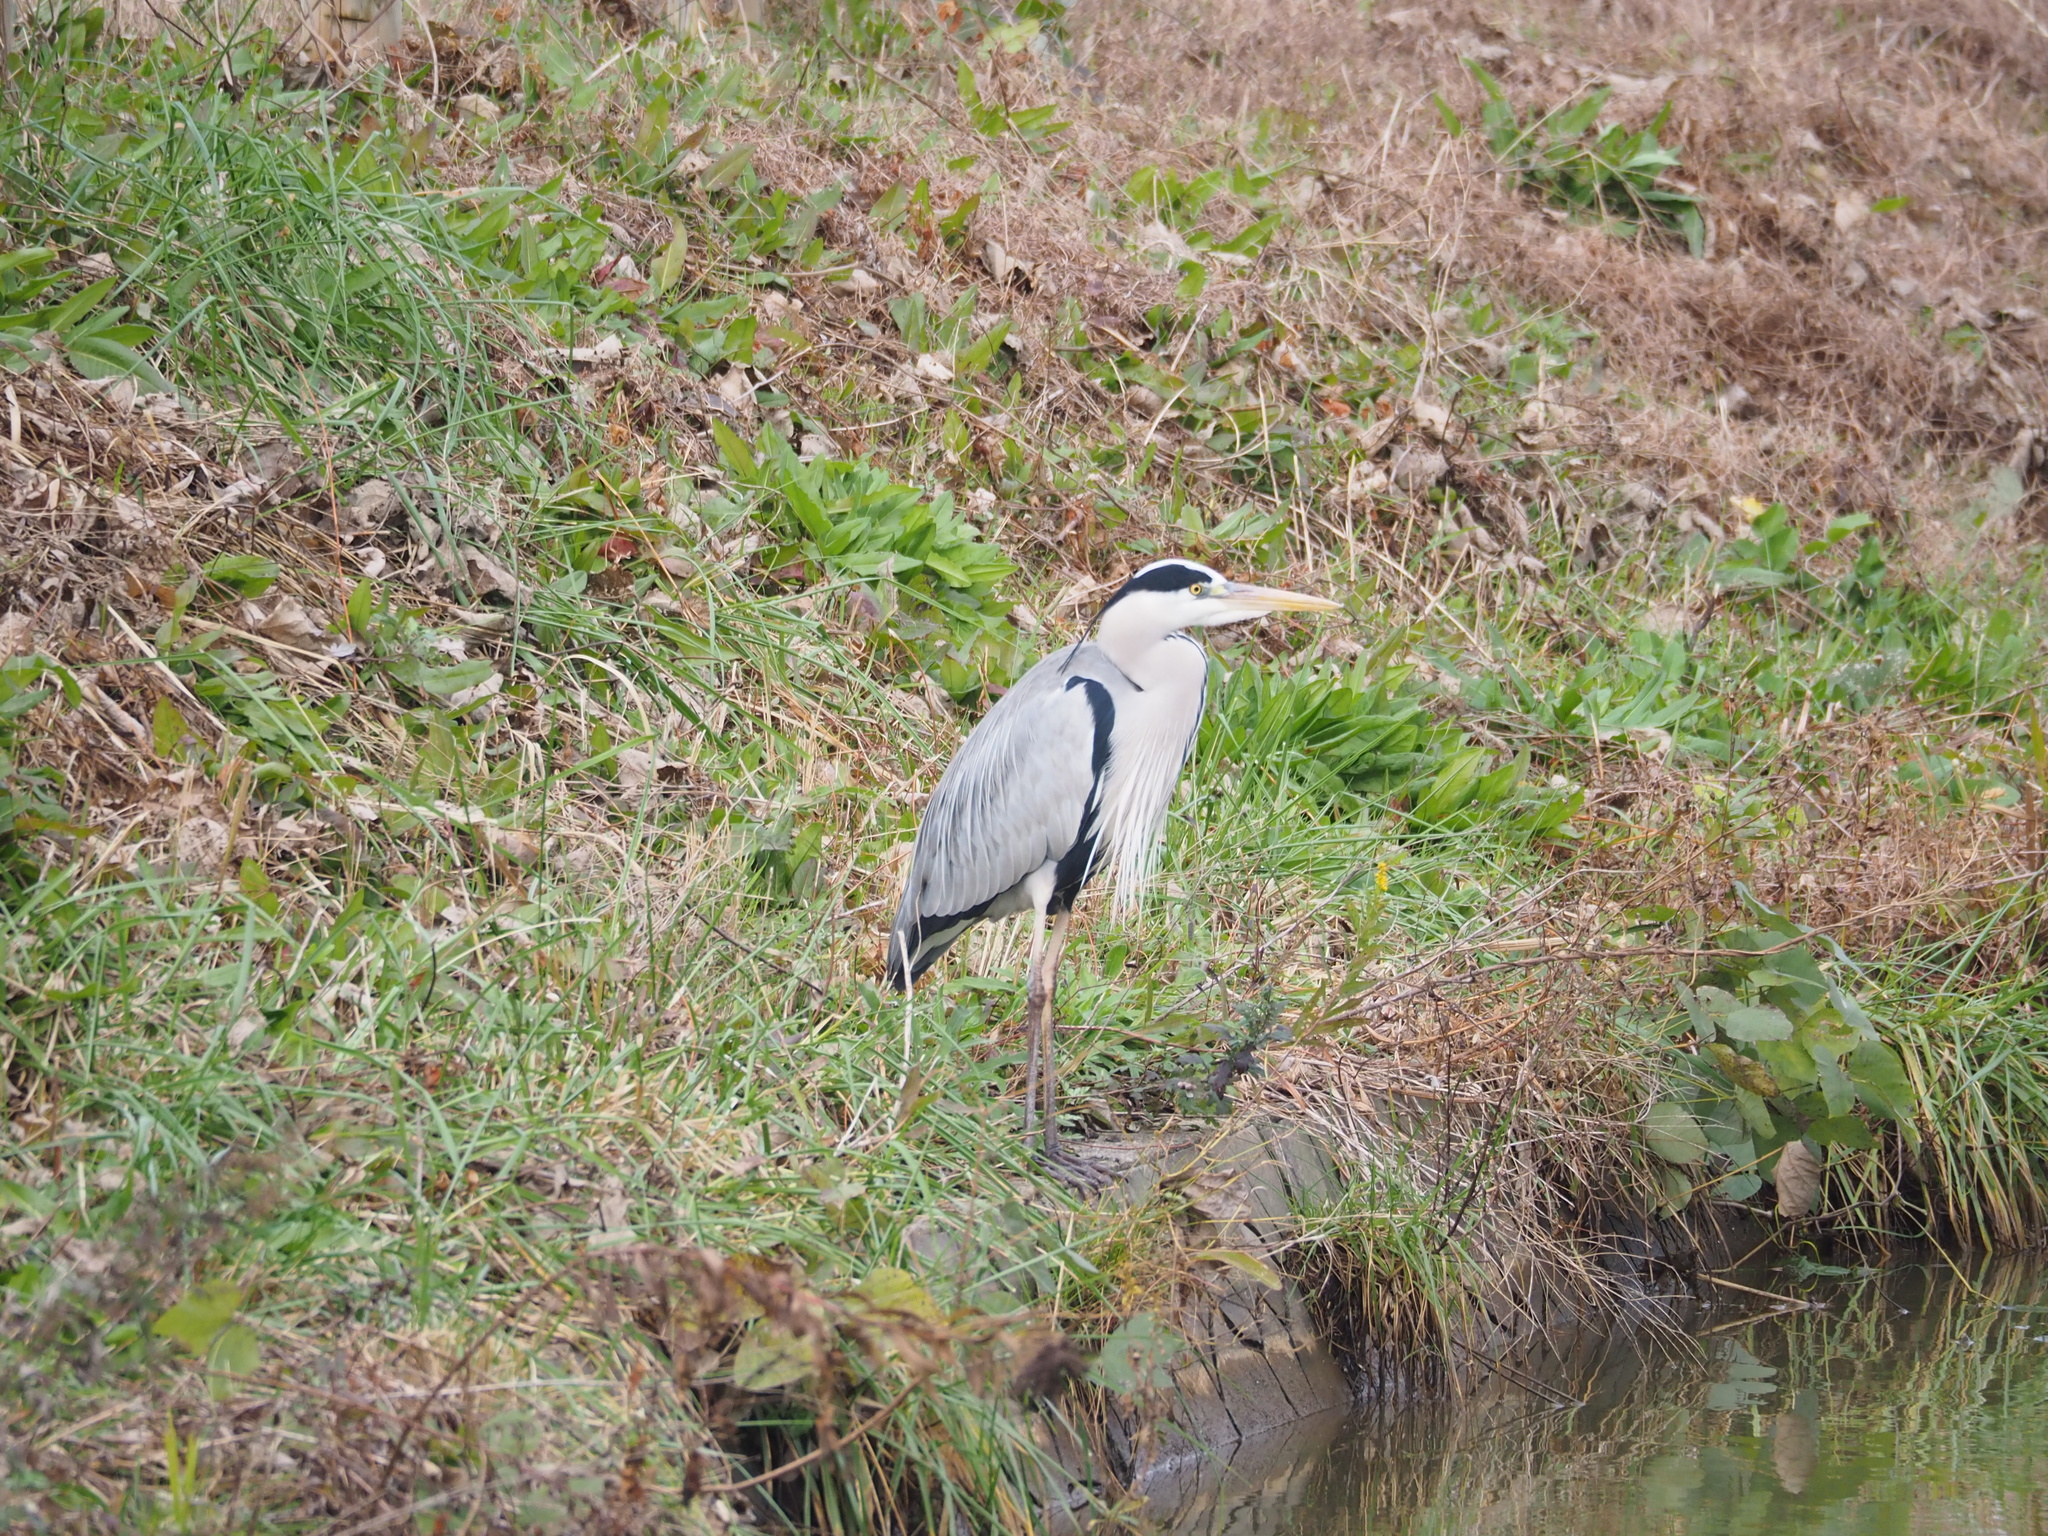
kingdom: Animalia
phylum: Chordata
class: Aves
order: Pelecaniformes
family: Ardeidae
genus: Ardea
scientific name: Ardea cinerea
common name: Grey heron
